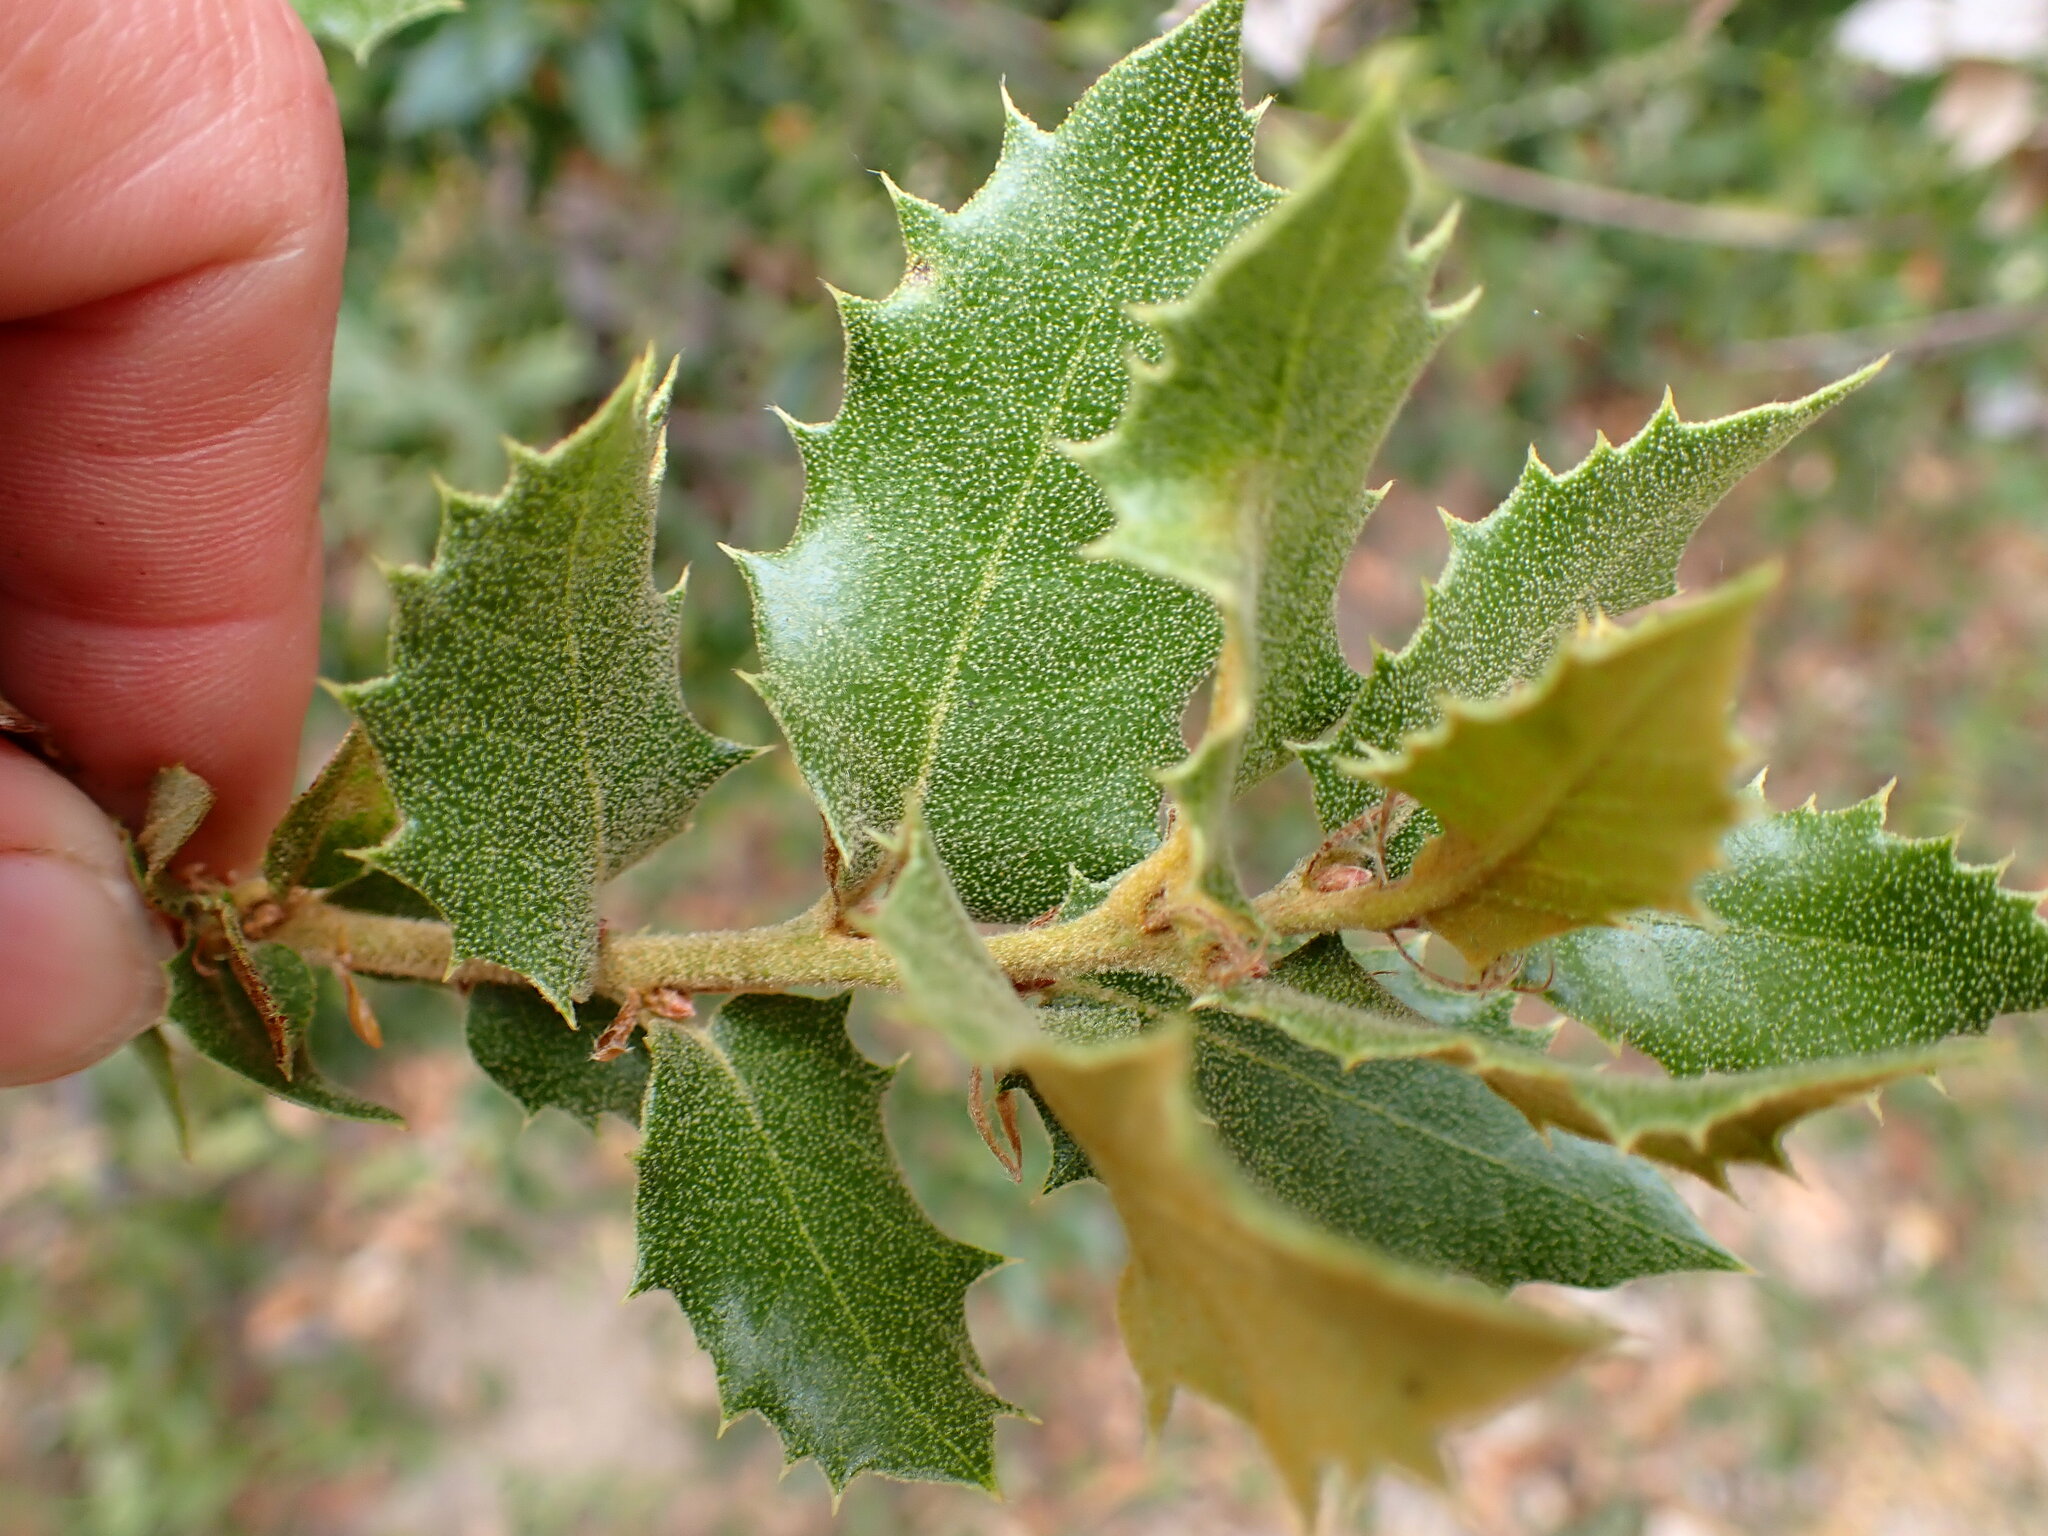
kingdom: Plantae
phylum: Tracheophyta
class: Magnoliopsida
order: Fagales
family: Fagaceae
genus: Quercus
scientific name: Quercus chrysolepis
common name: Canyon live oak
